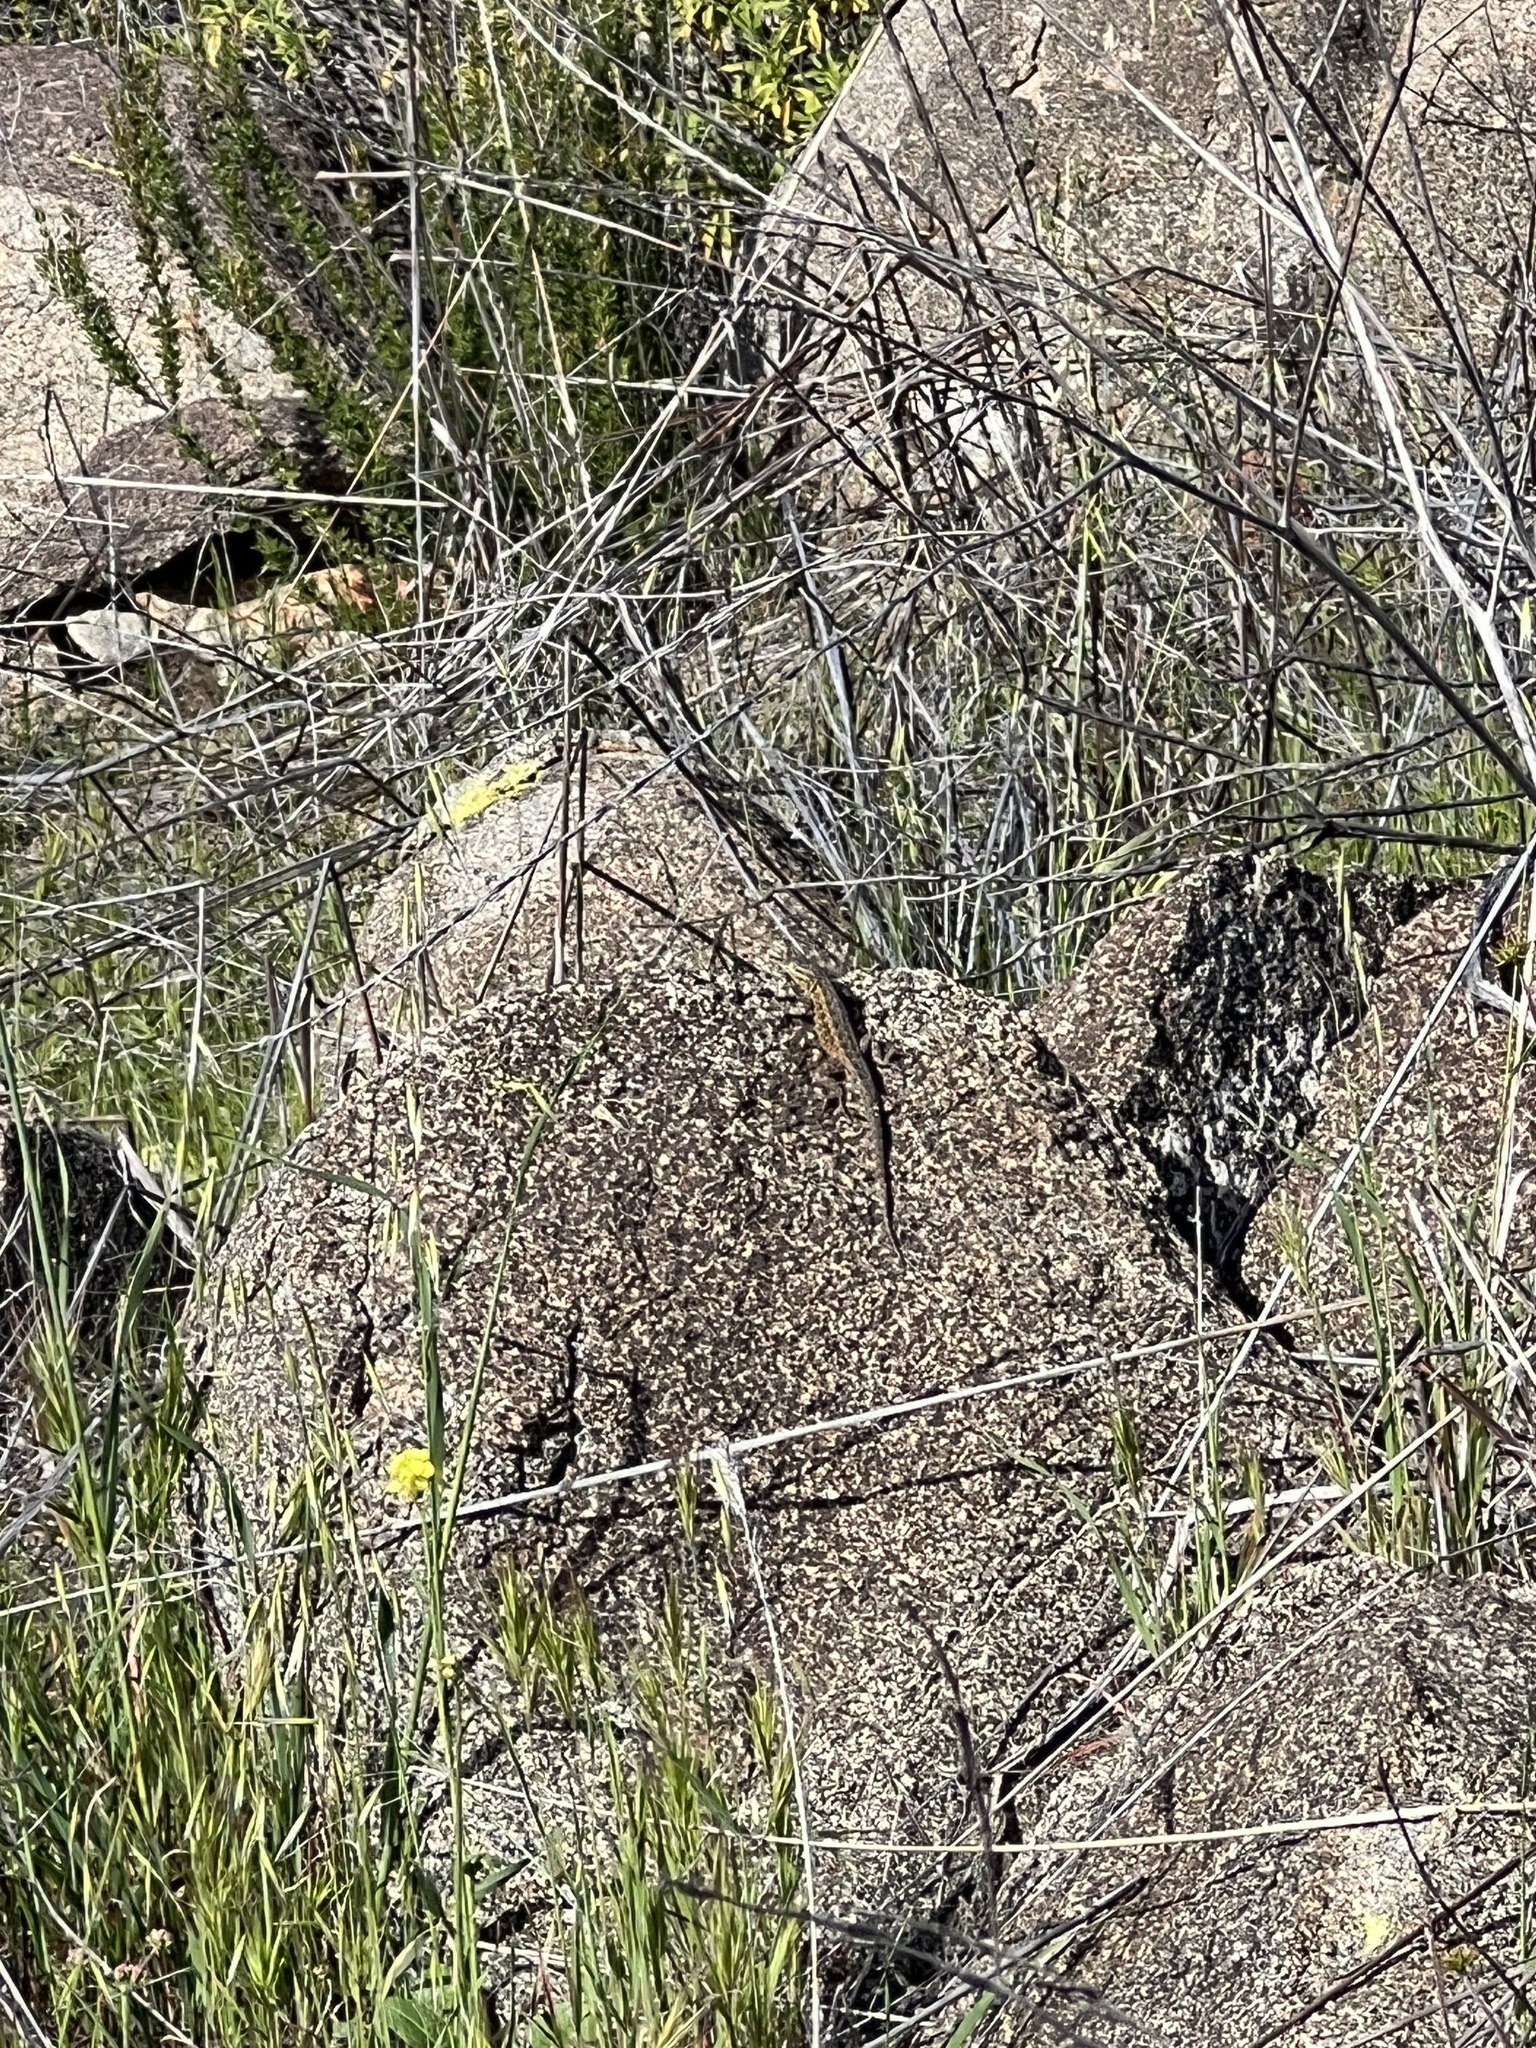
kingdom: Animalia
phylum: Chordata
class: Squamata
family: Phrynosomatidae
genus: Uta
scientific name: Uta stansburiana
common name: Side-blotched lizard
